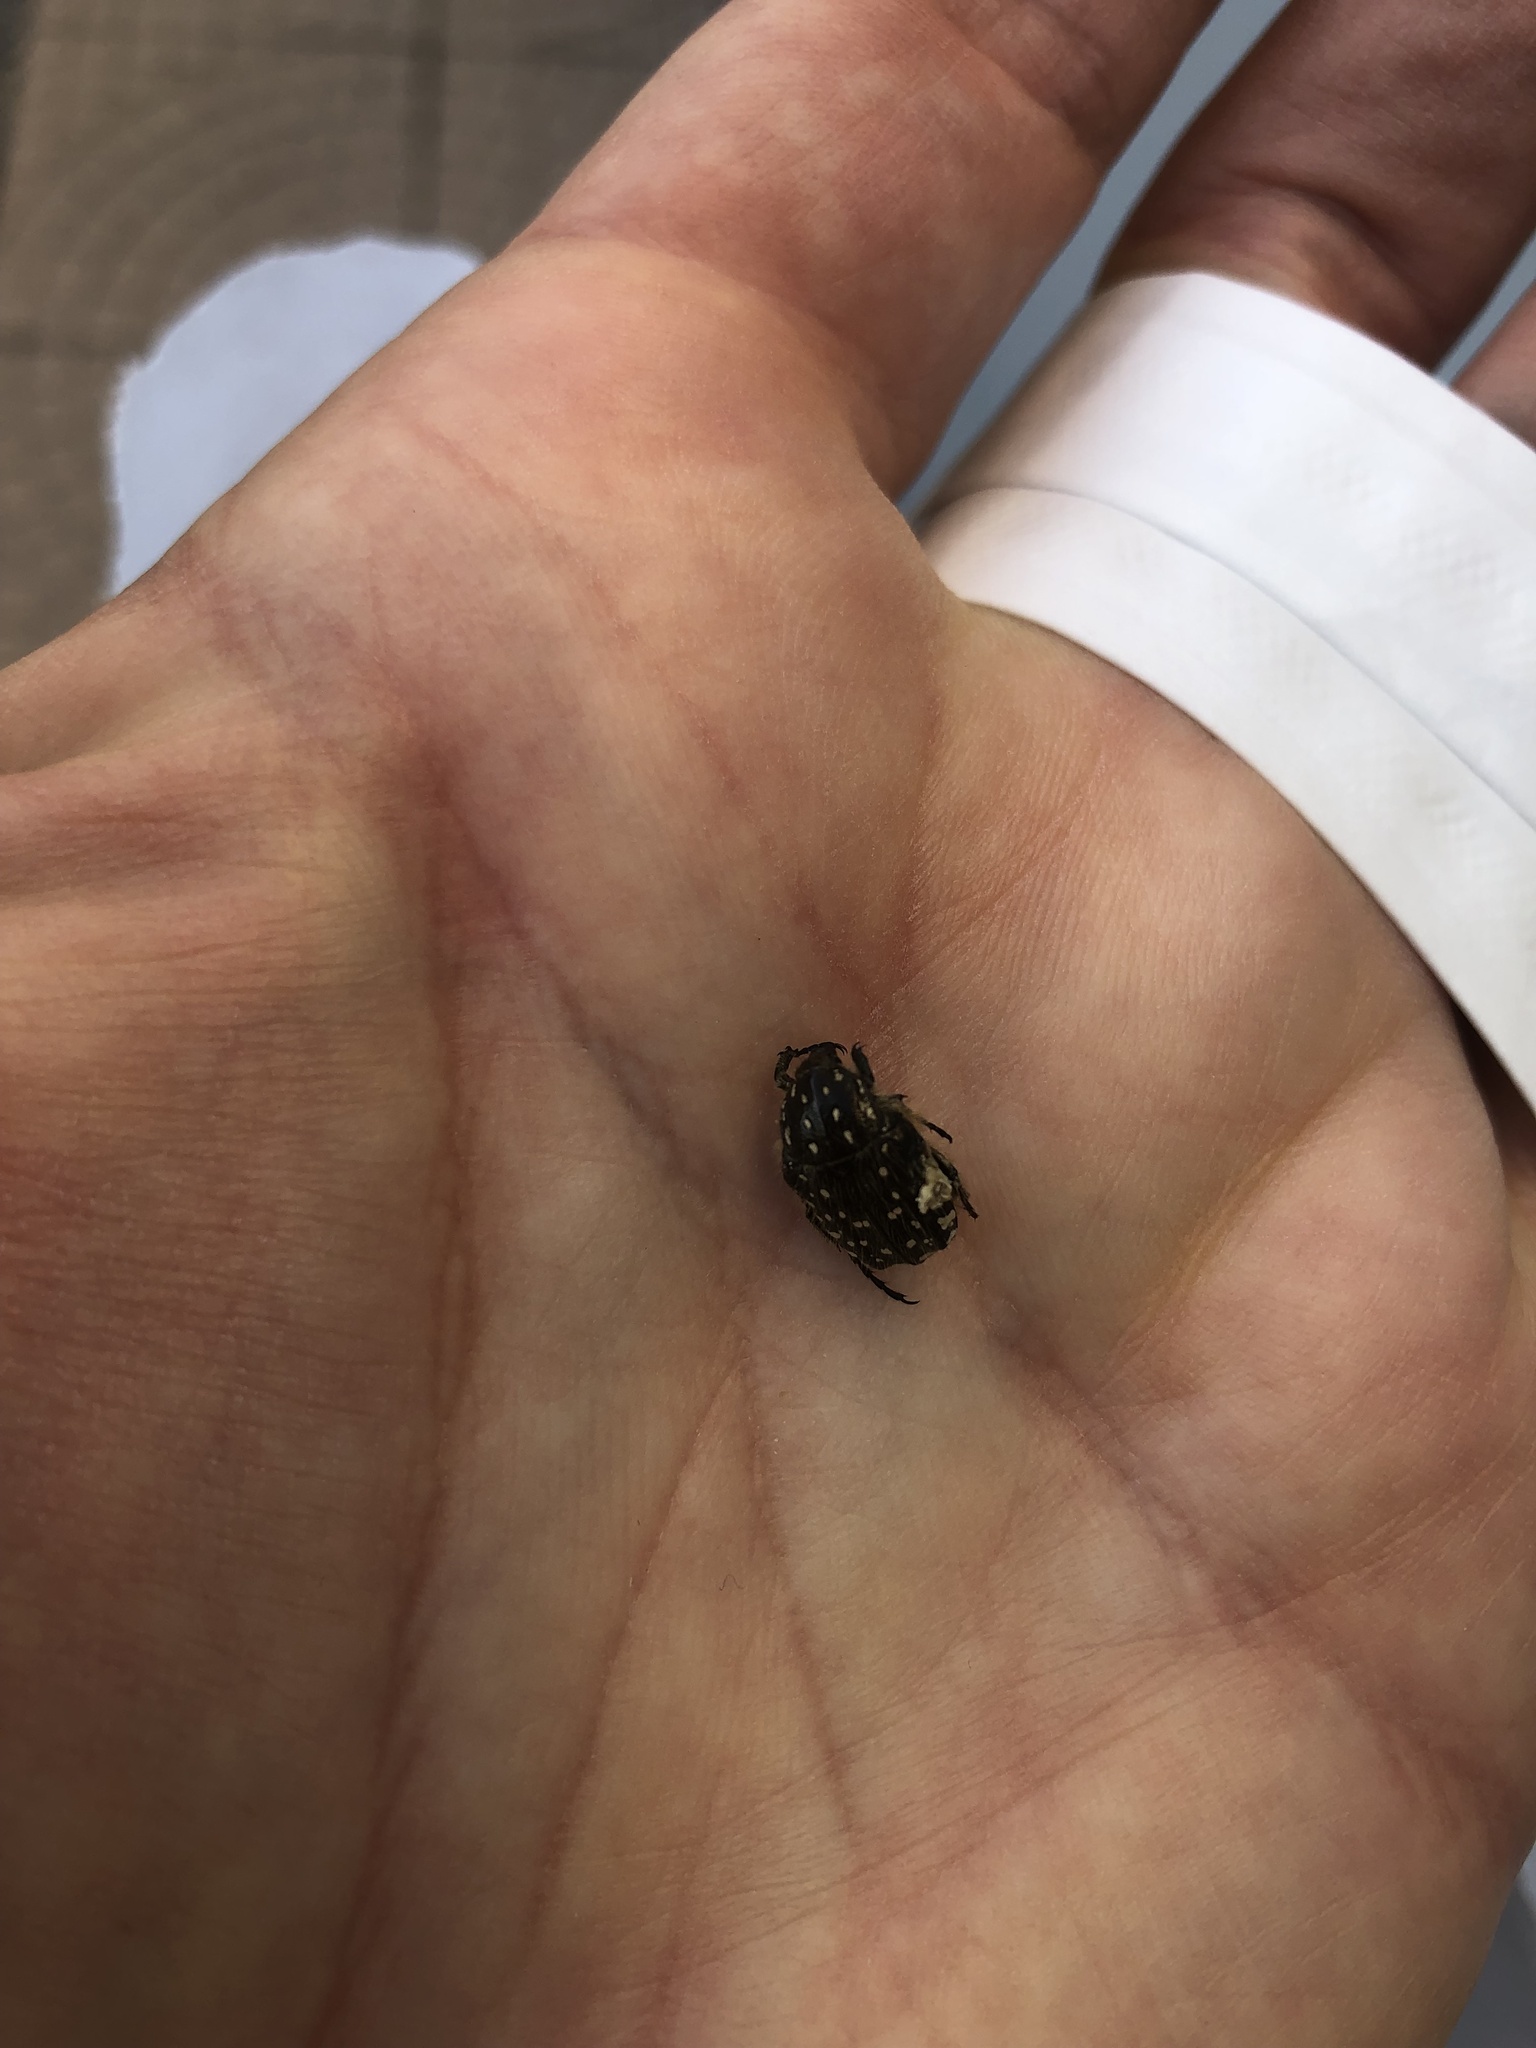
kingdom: Animalia
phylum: Arthropoda
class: Insecta
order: Coleoptera
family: Scarabaeidae
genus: Oxythyrea
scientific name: Oxythyrea funesta
